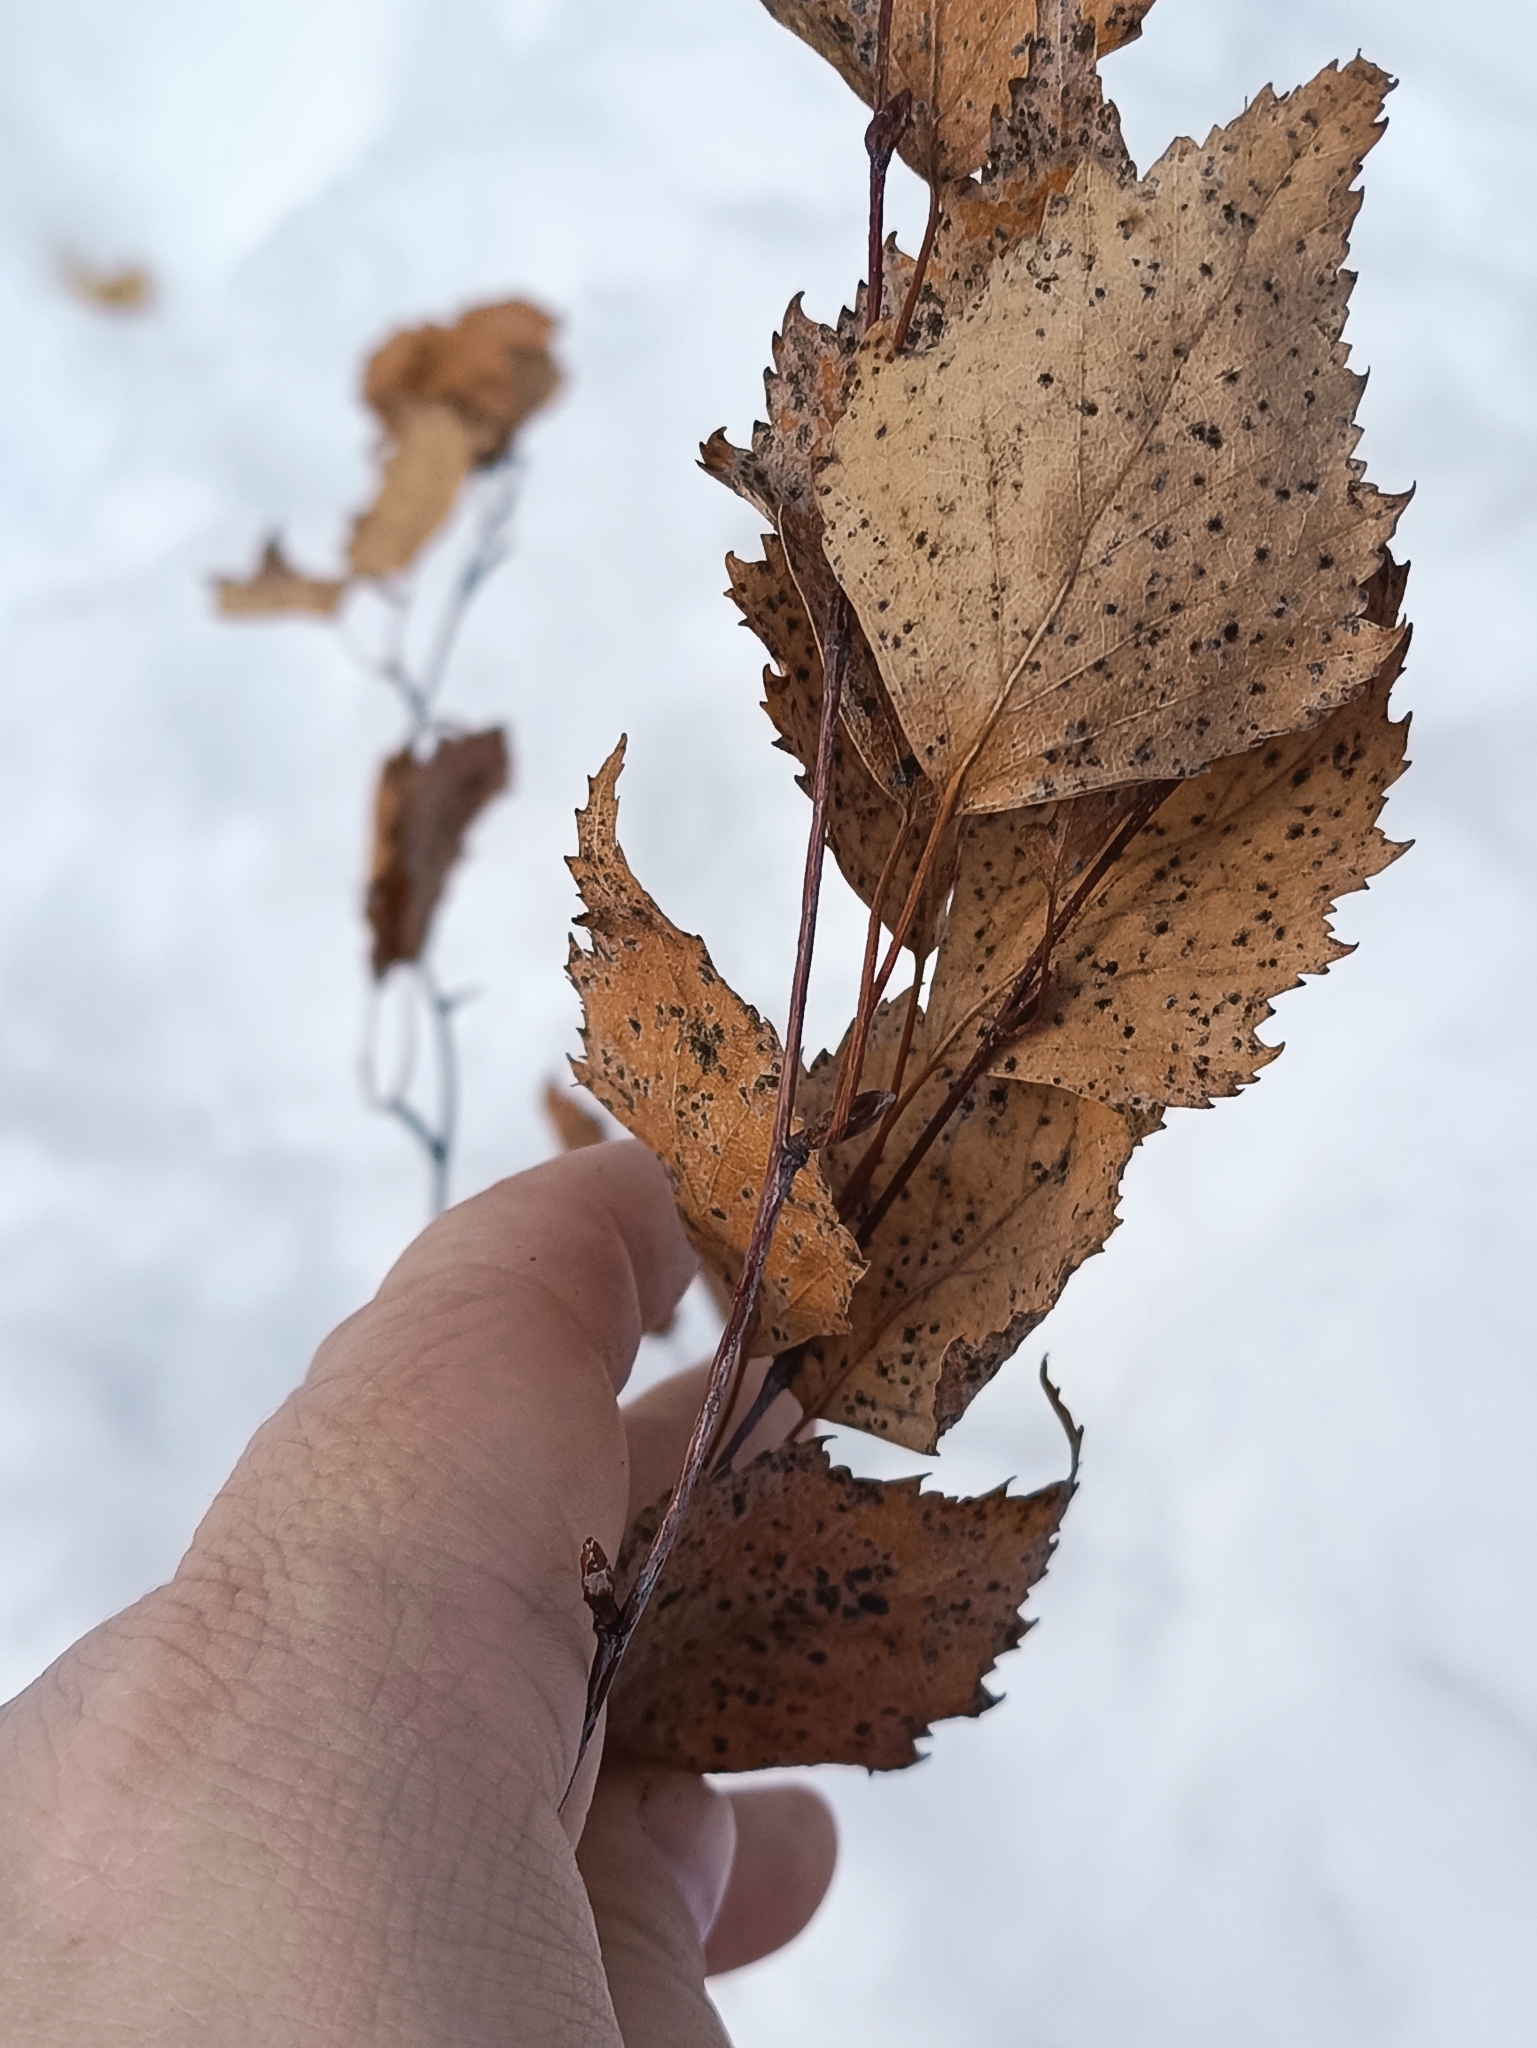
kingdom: Plantae
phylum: Tracheophyta
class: Magnoliopsida
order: Fagales
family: Betulaceae
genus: Betula
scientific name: Betula pendula
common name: Silver birch
